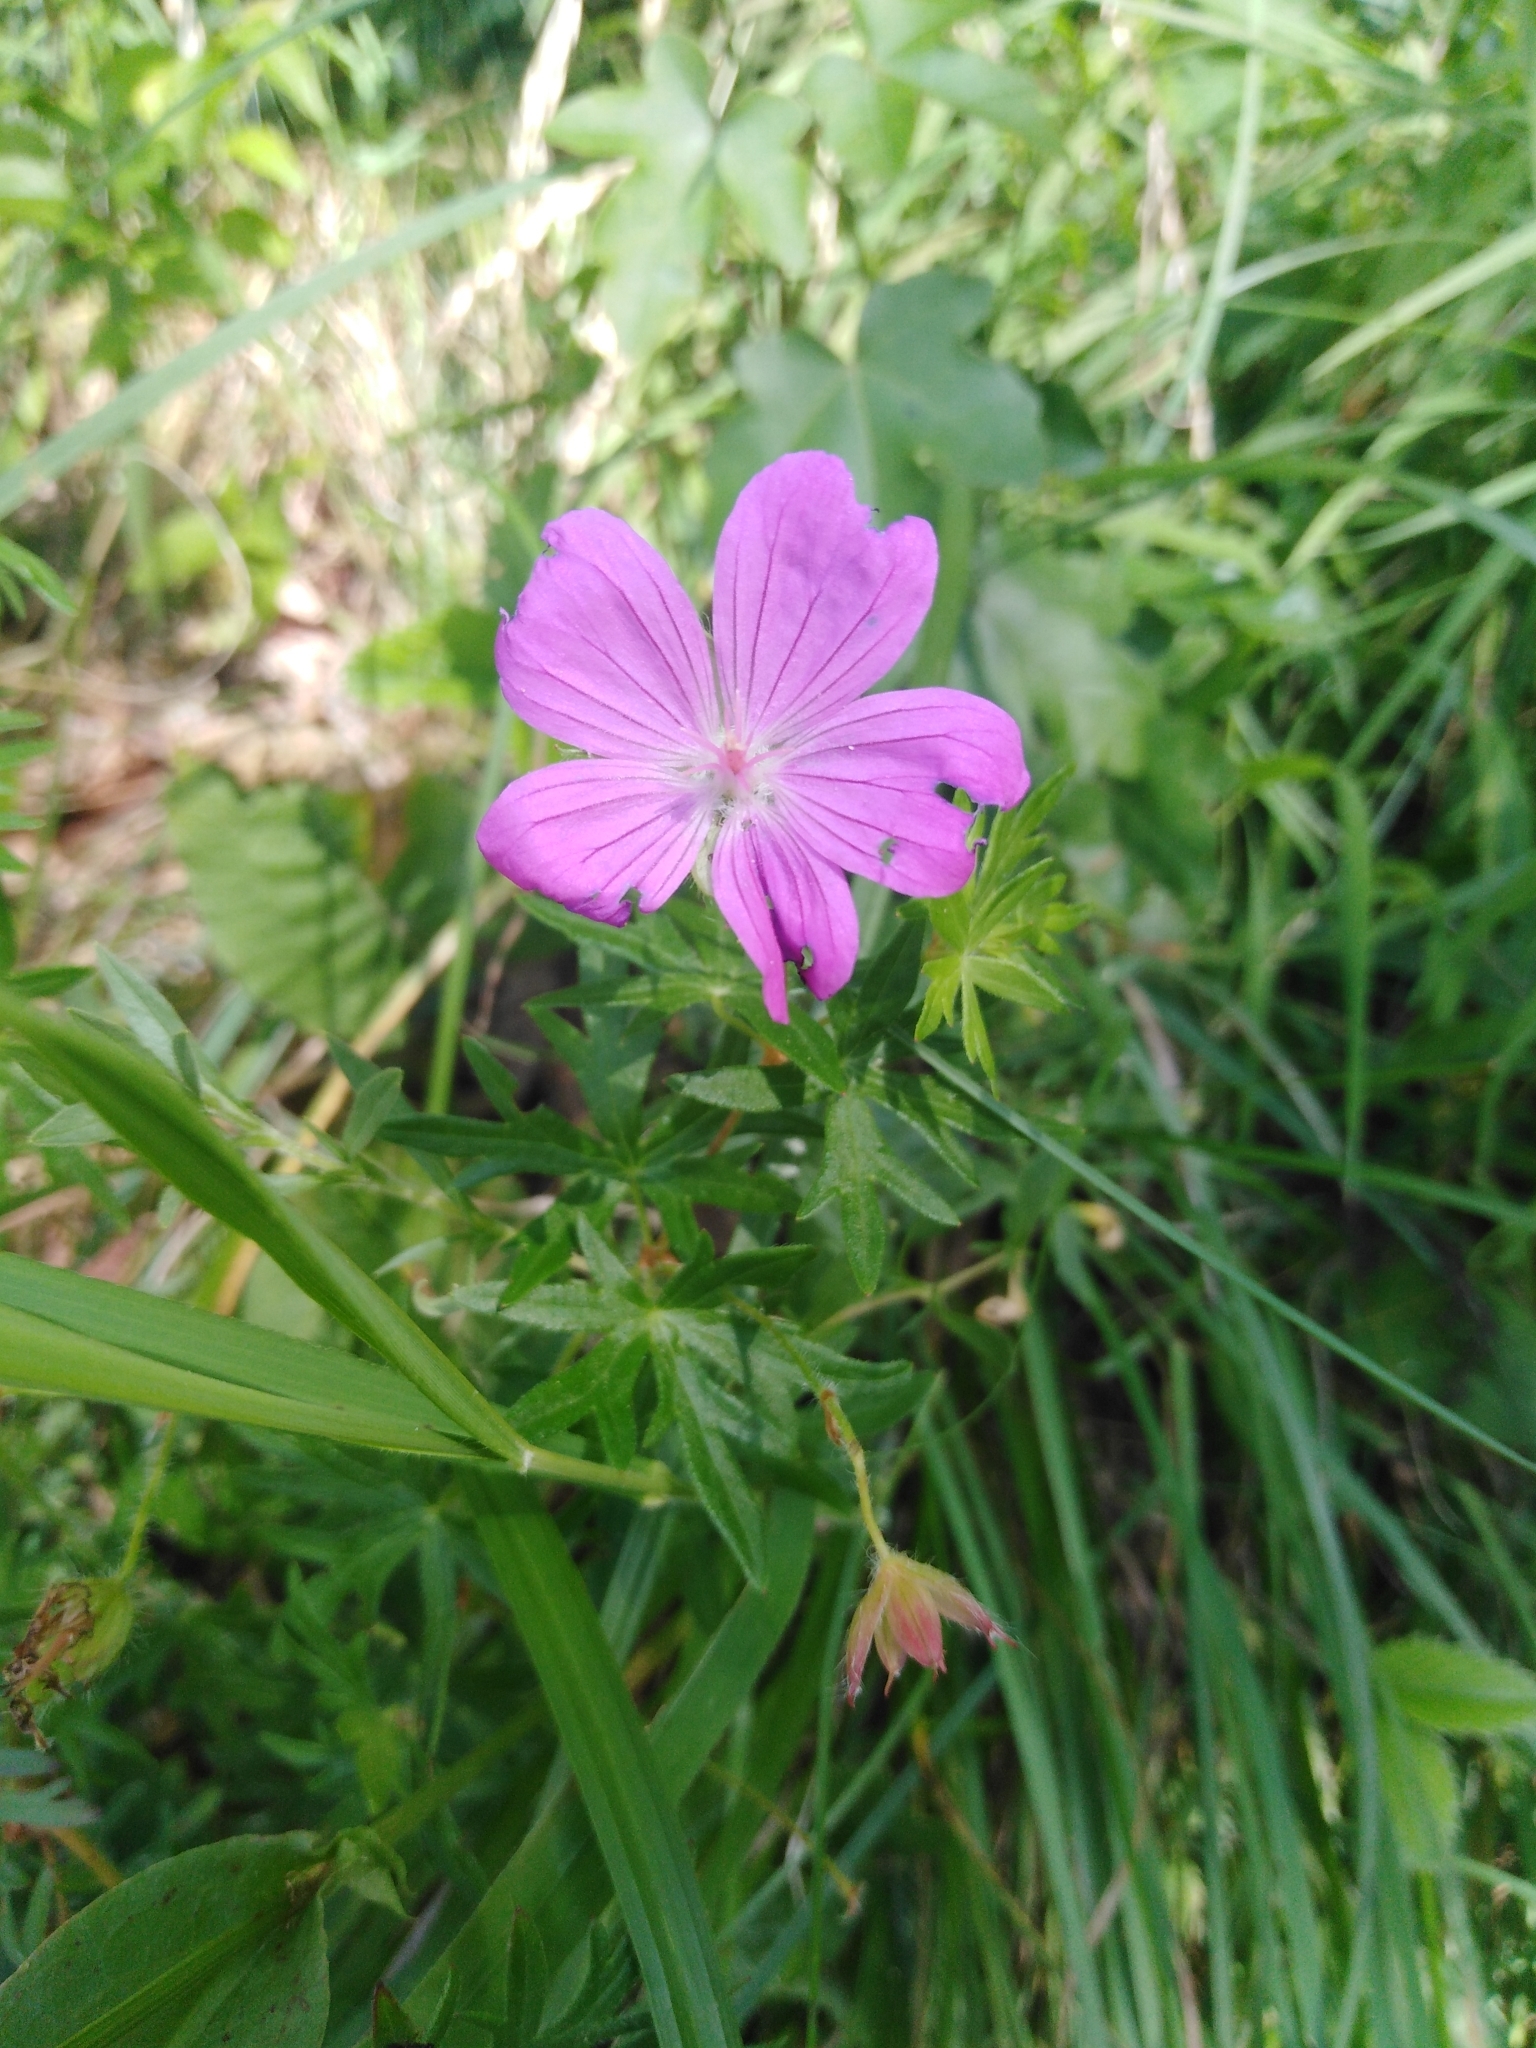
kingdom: Plantae
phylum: Tracheophyta
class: Magnoliopsida
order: Geraniales
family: Geraniaceae
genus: Geranium
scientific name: Geranium sanguineum
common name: Bloody crane's-bill
